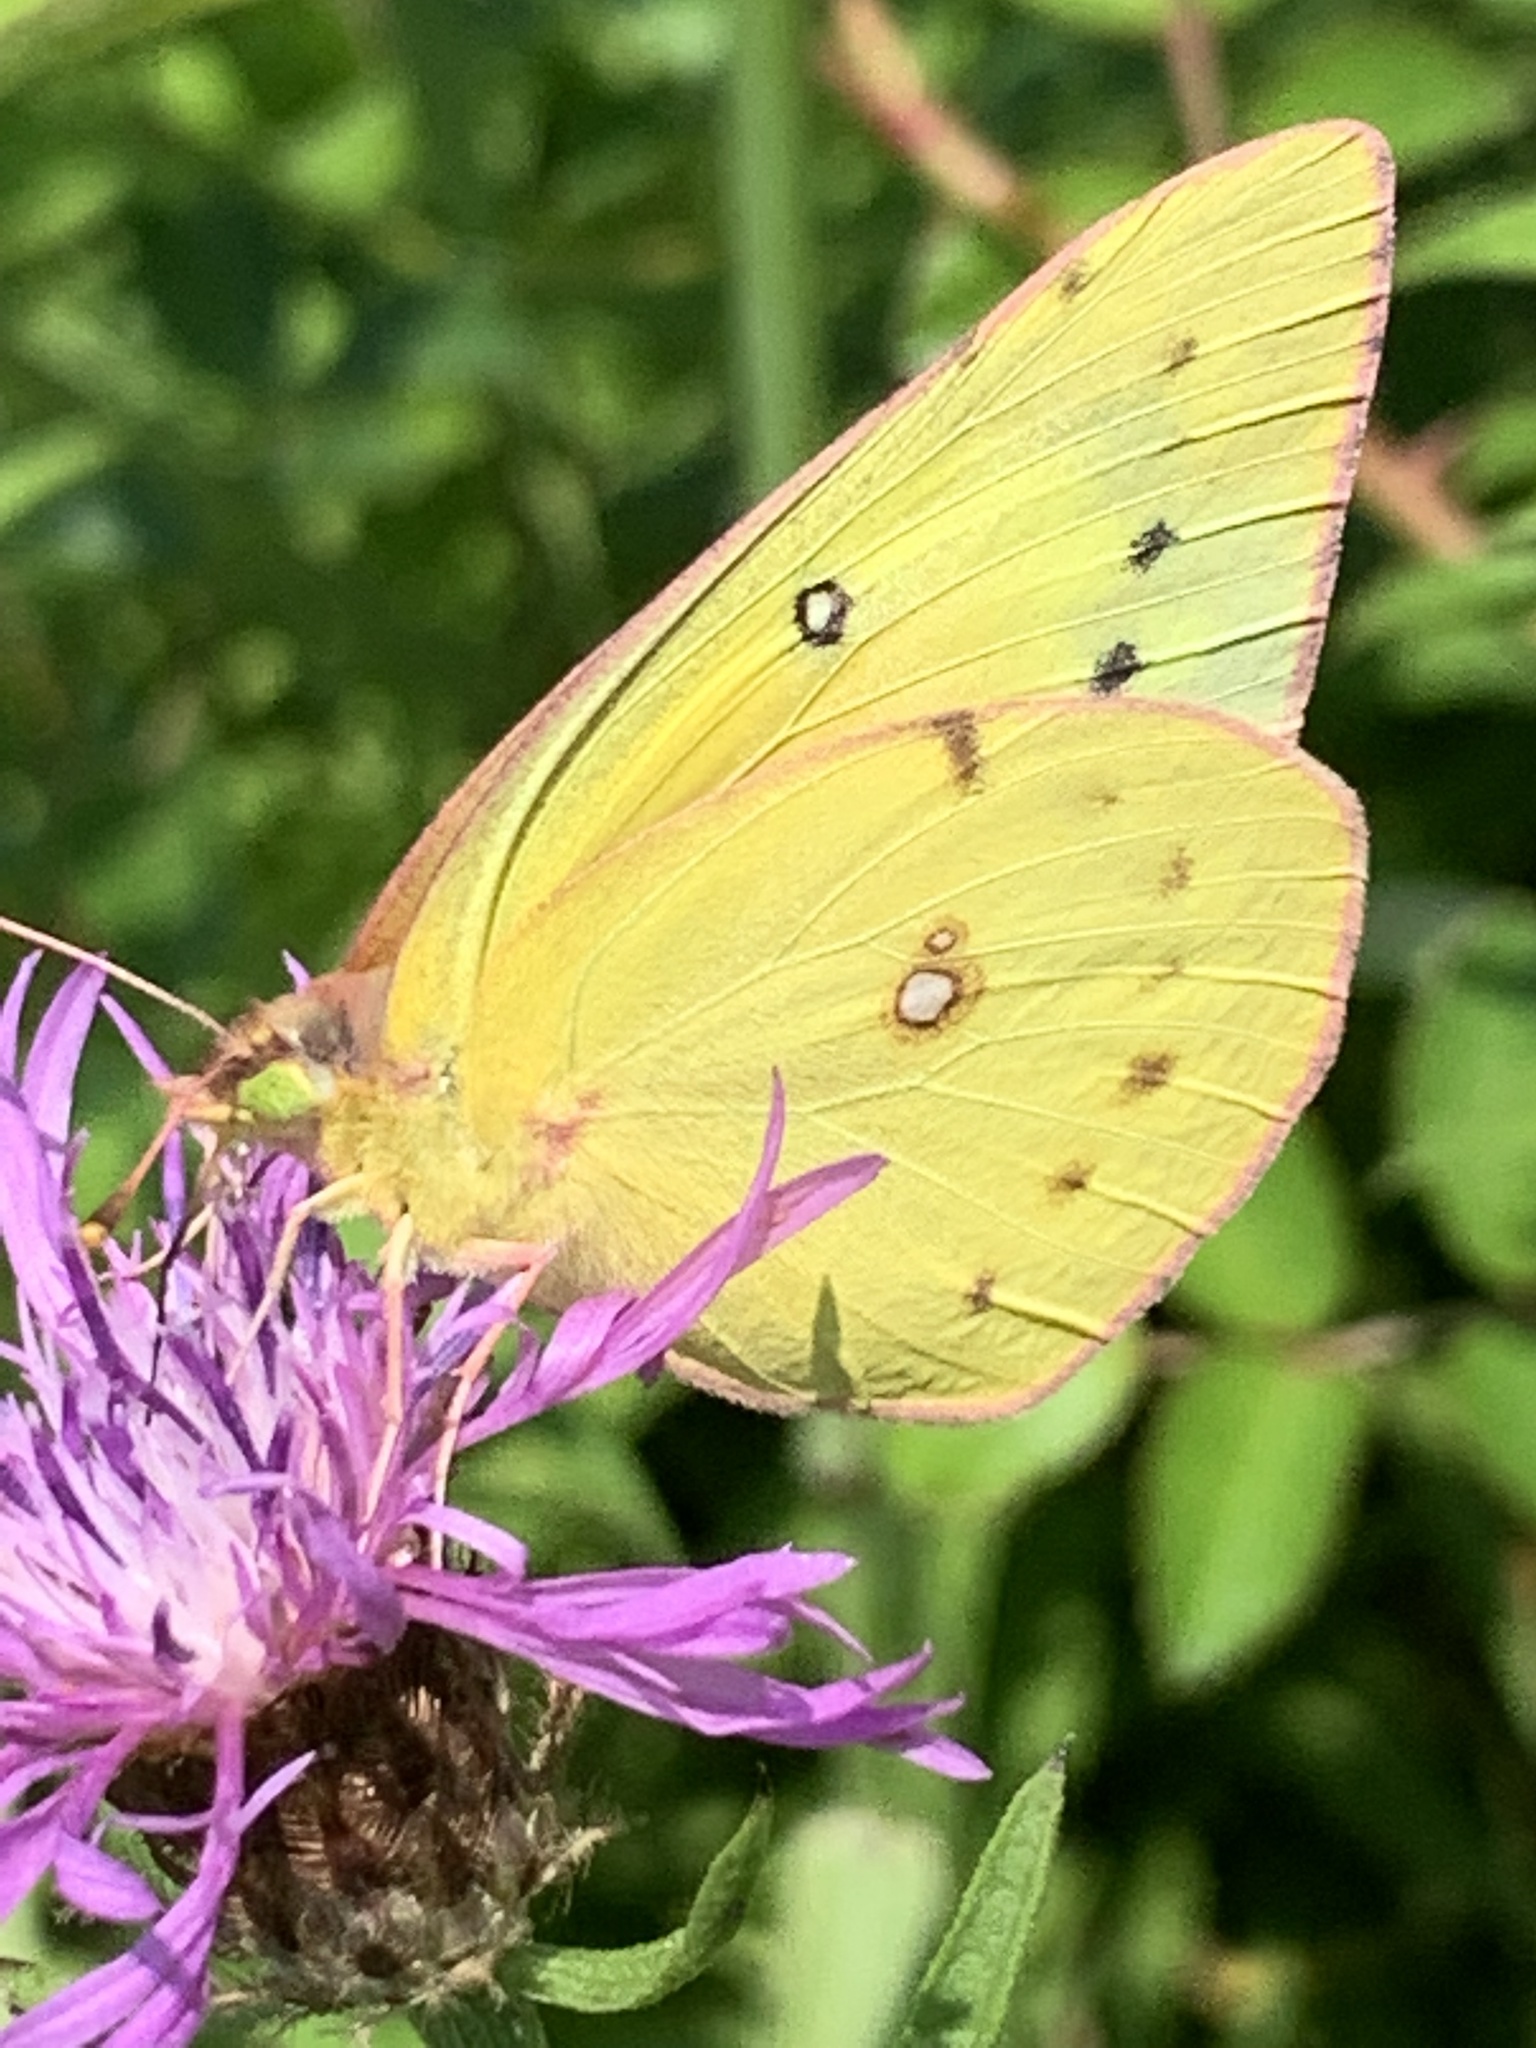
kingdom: Animalia
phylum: Arthropoda
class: Insecta
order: Lepidoptera
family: Pieridae
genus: Colias
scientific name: Colias eurytheme
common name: Alfalfa butterfly
